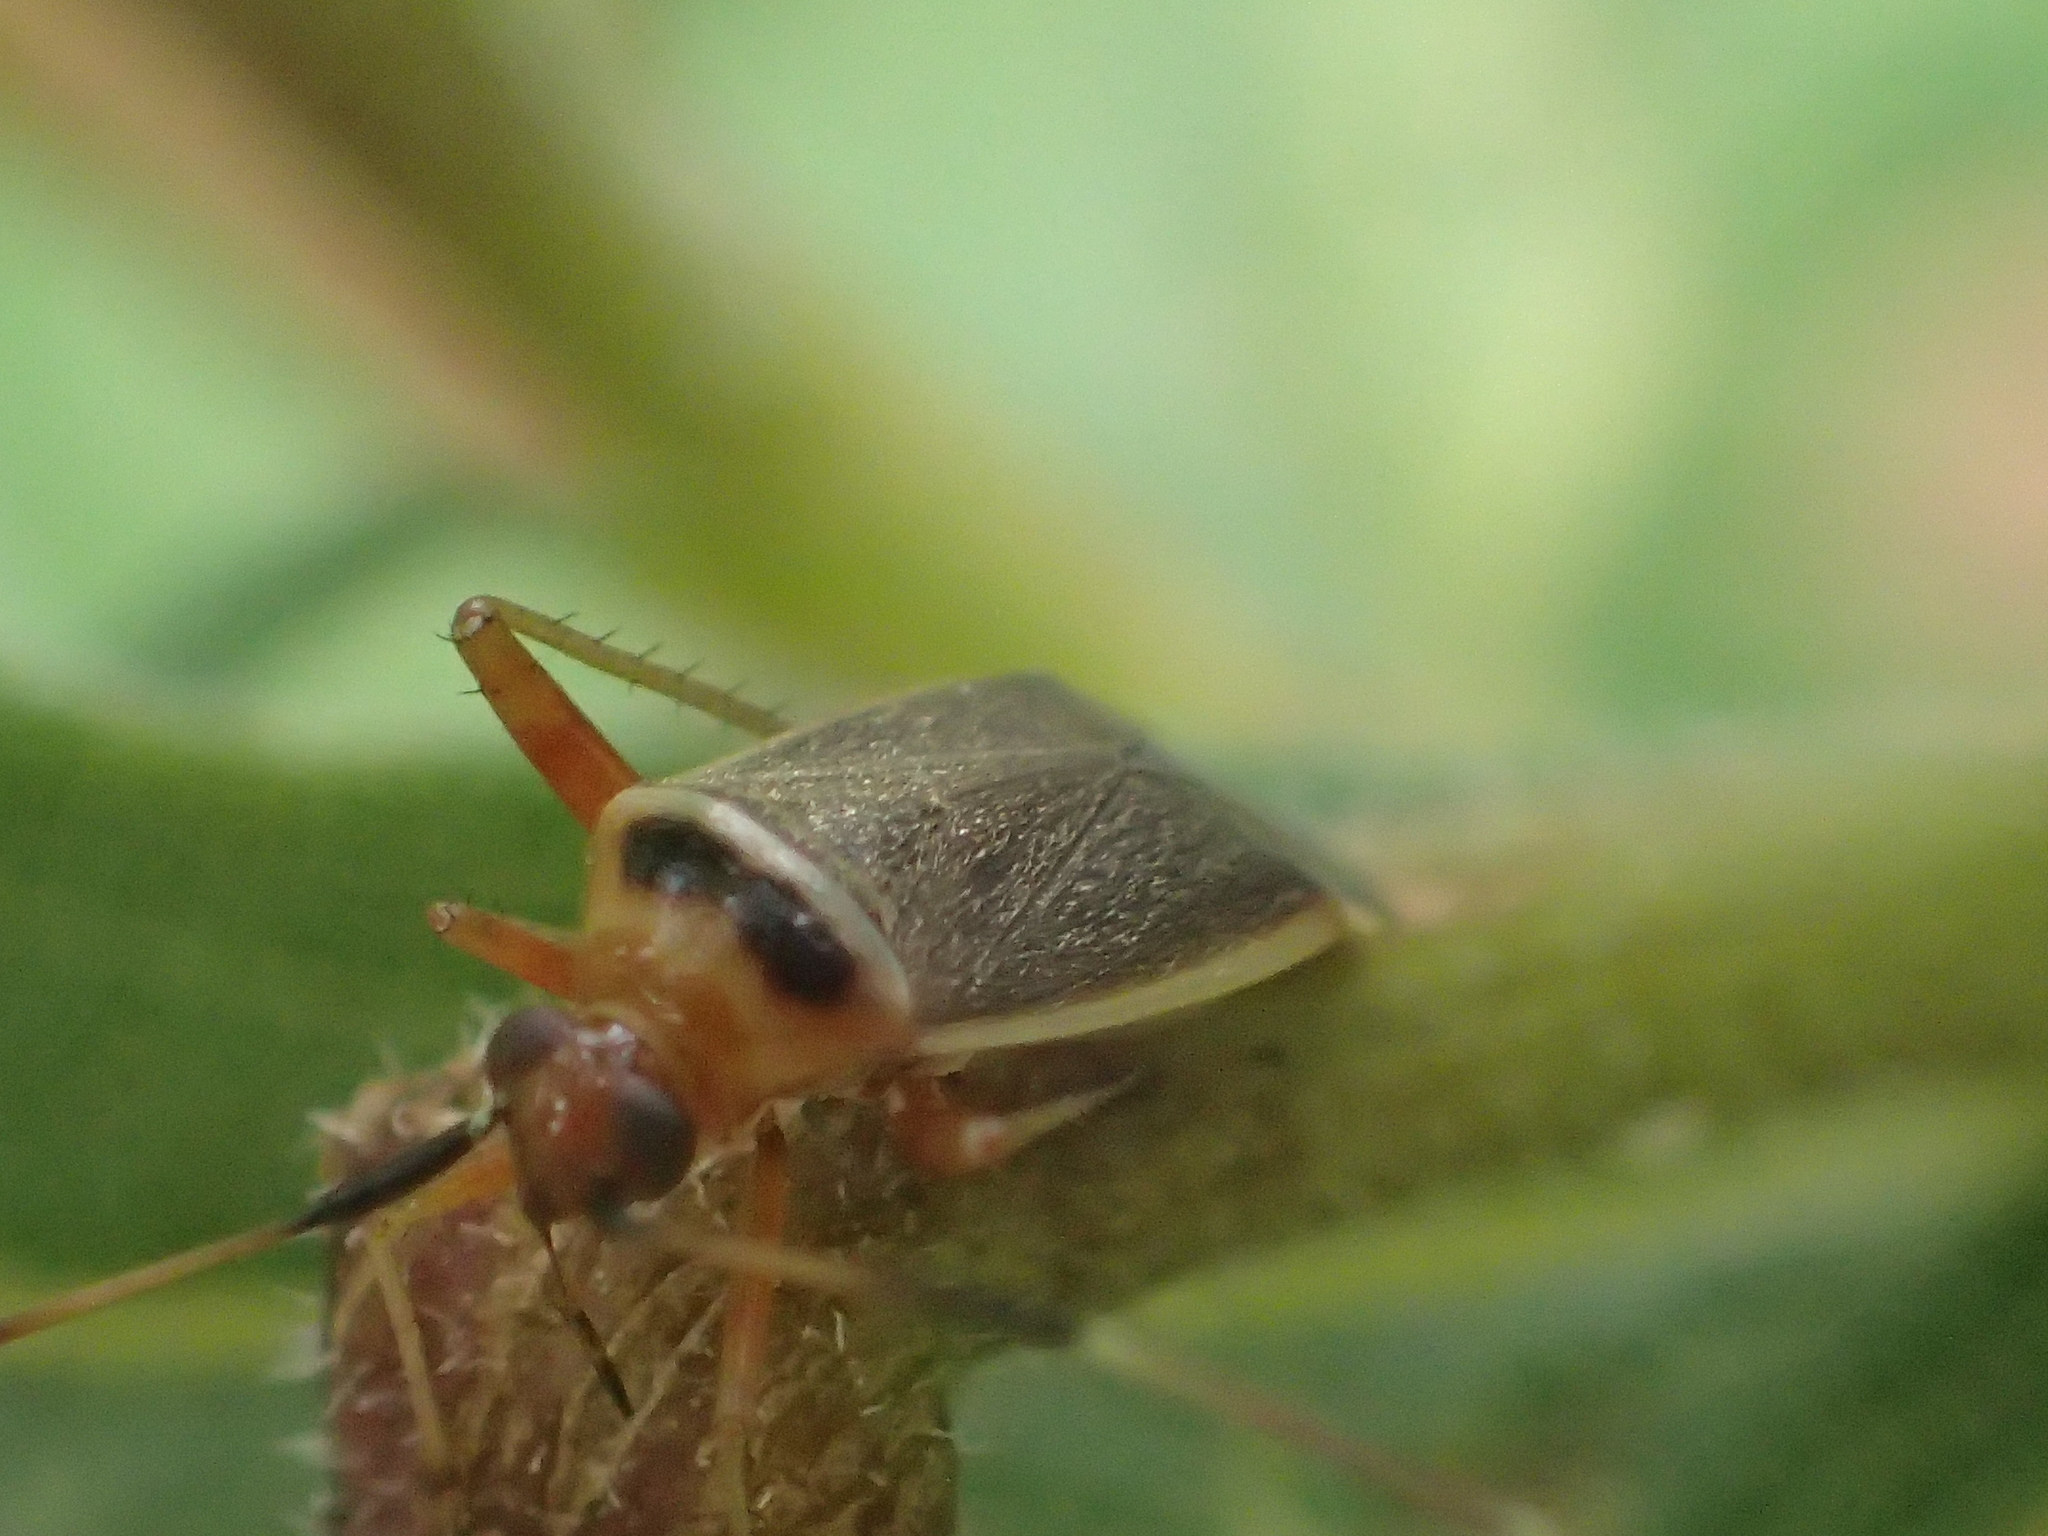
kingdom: Animalia
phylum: Arthropoda
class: Insecta
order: Hemiptera
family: Miridae
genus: Adelphocoris
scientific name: Adelphocoris rapidus
